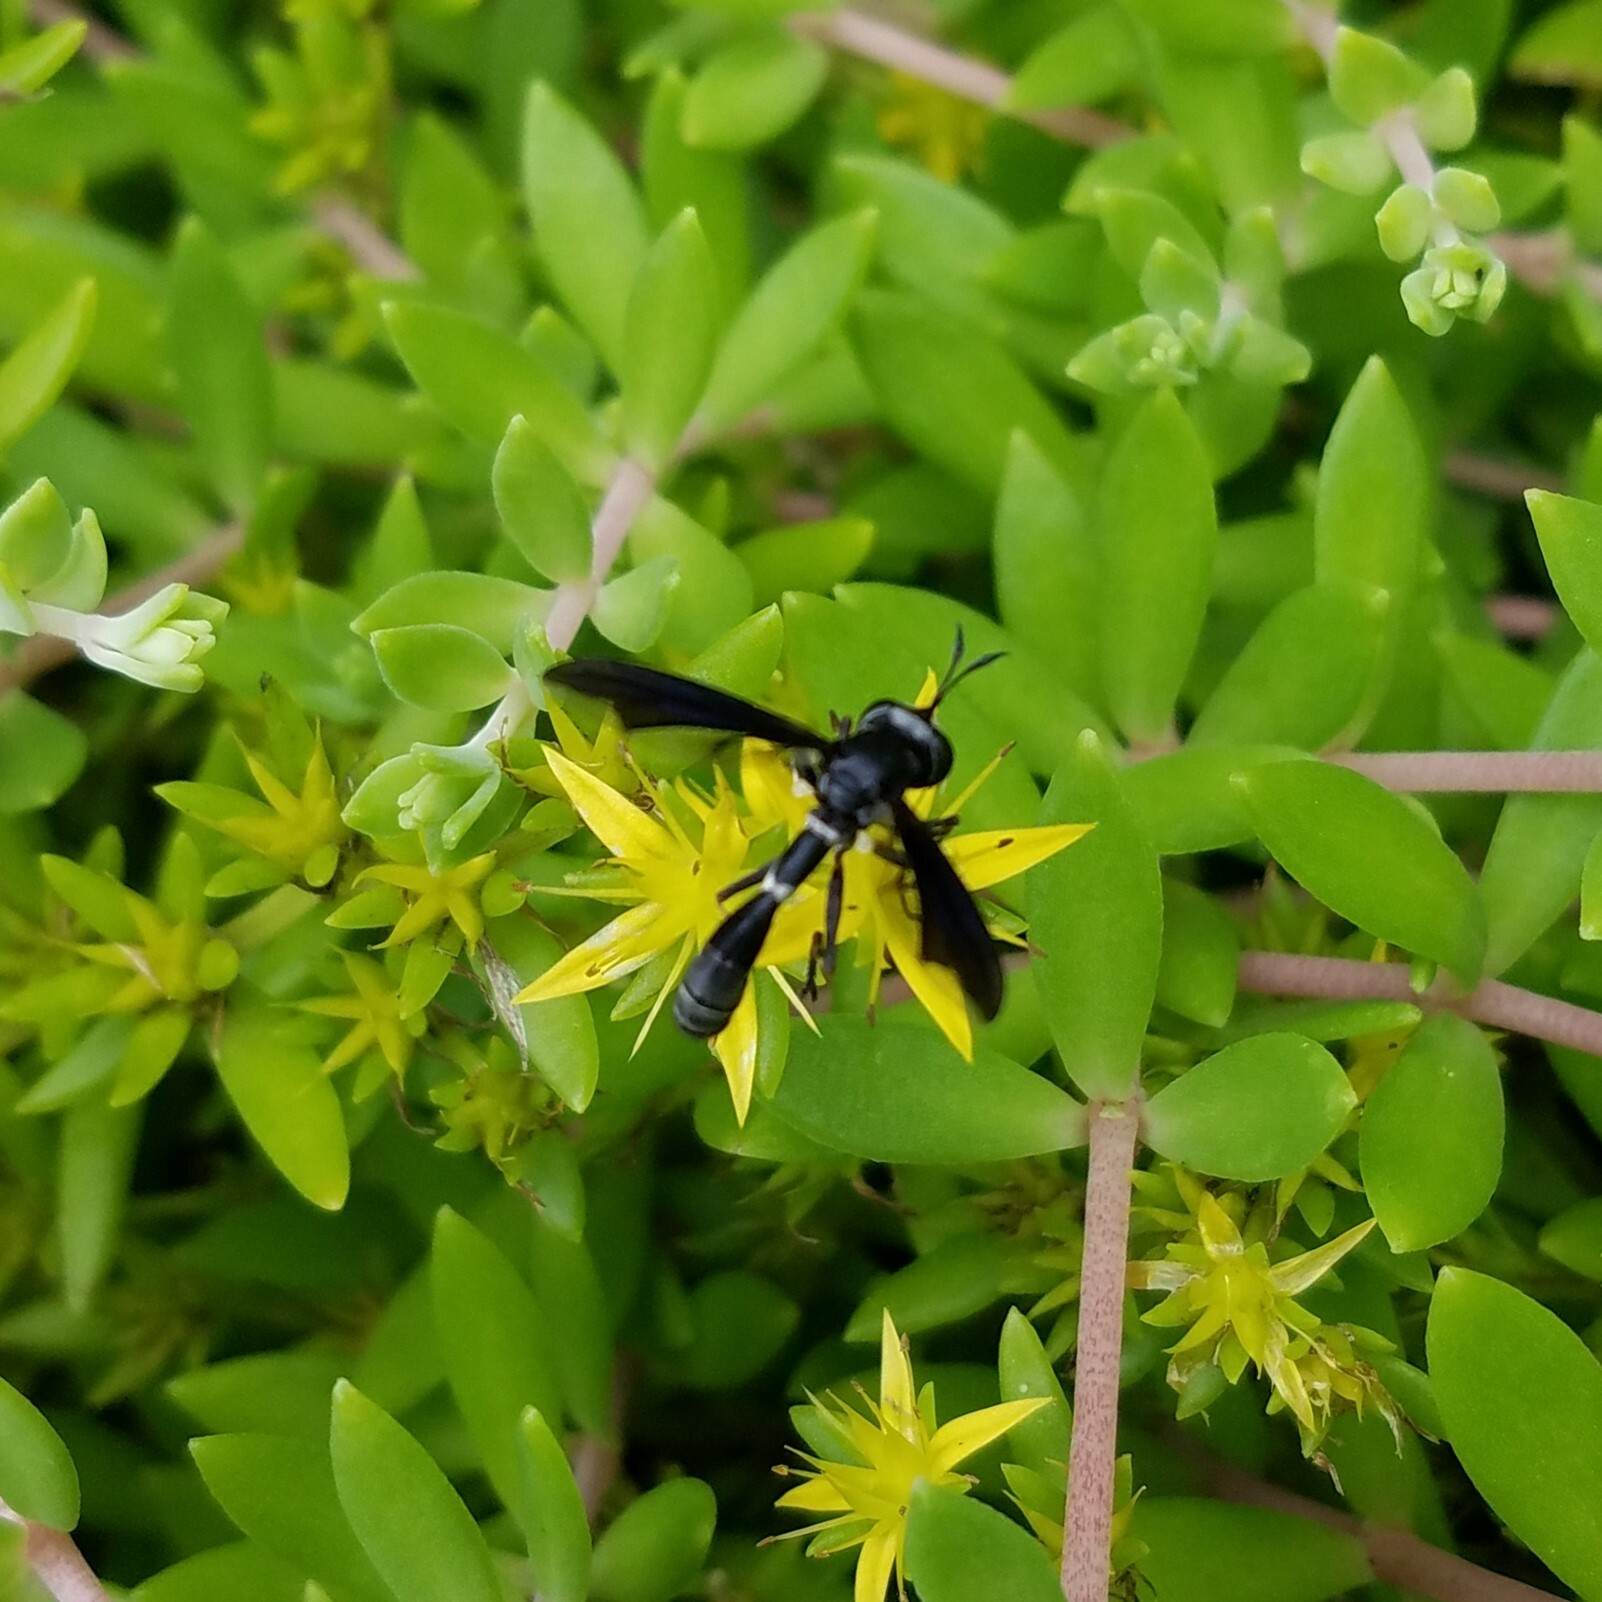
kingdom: Animalia
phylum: Arthropoda
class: Insecta
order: Diptera
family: Conopidae
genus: Physocephala
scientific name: Physocephala tibialis
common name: Common eastern physocephala
